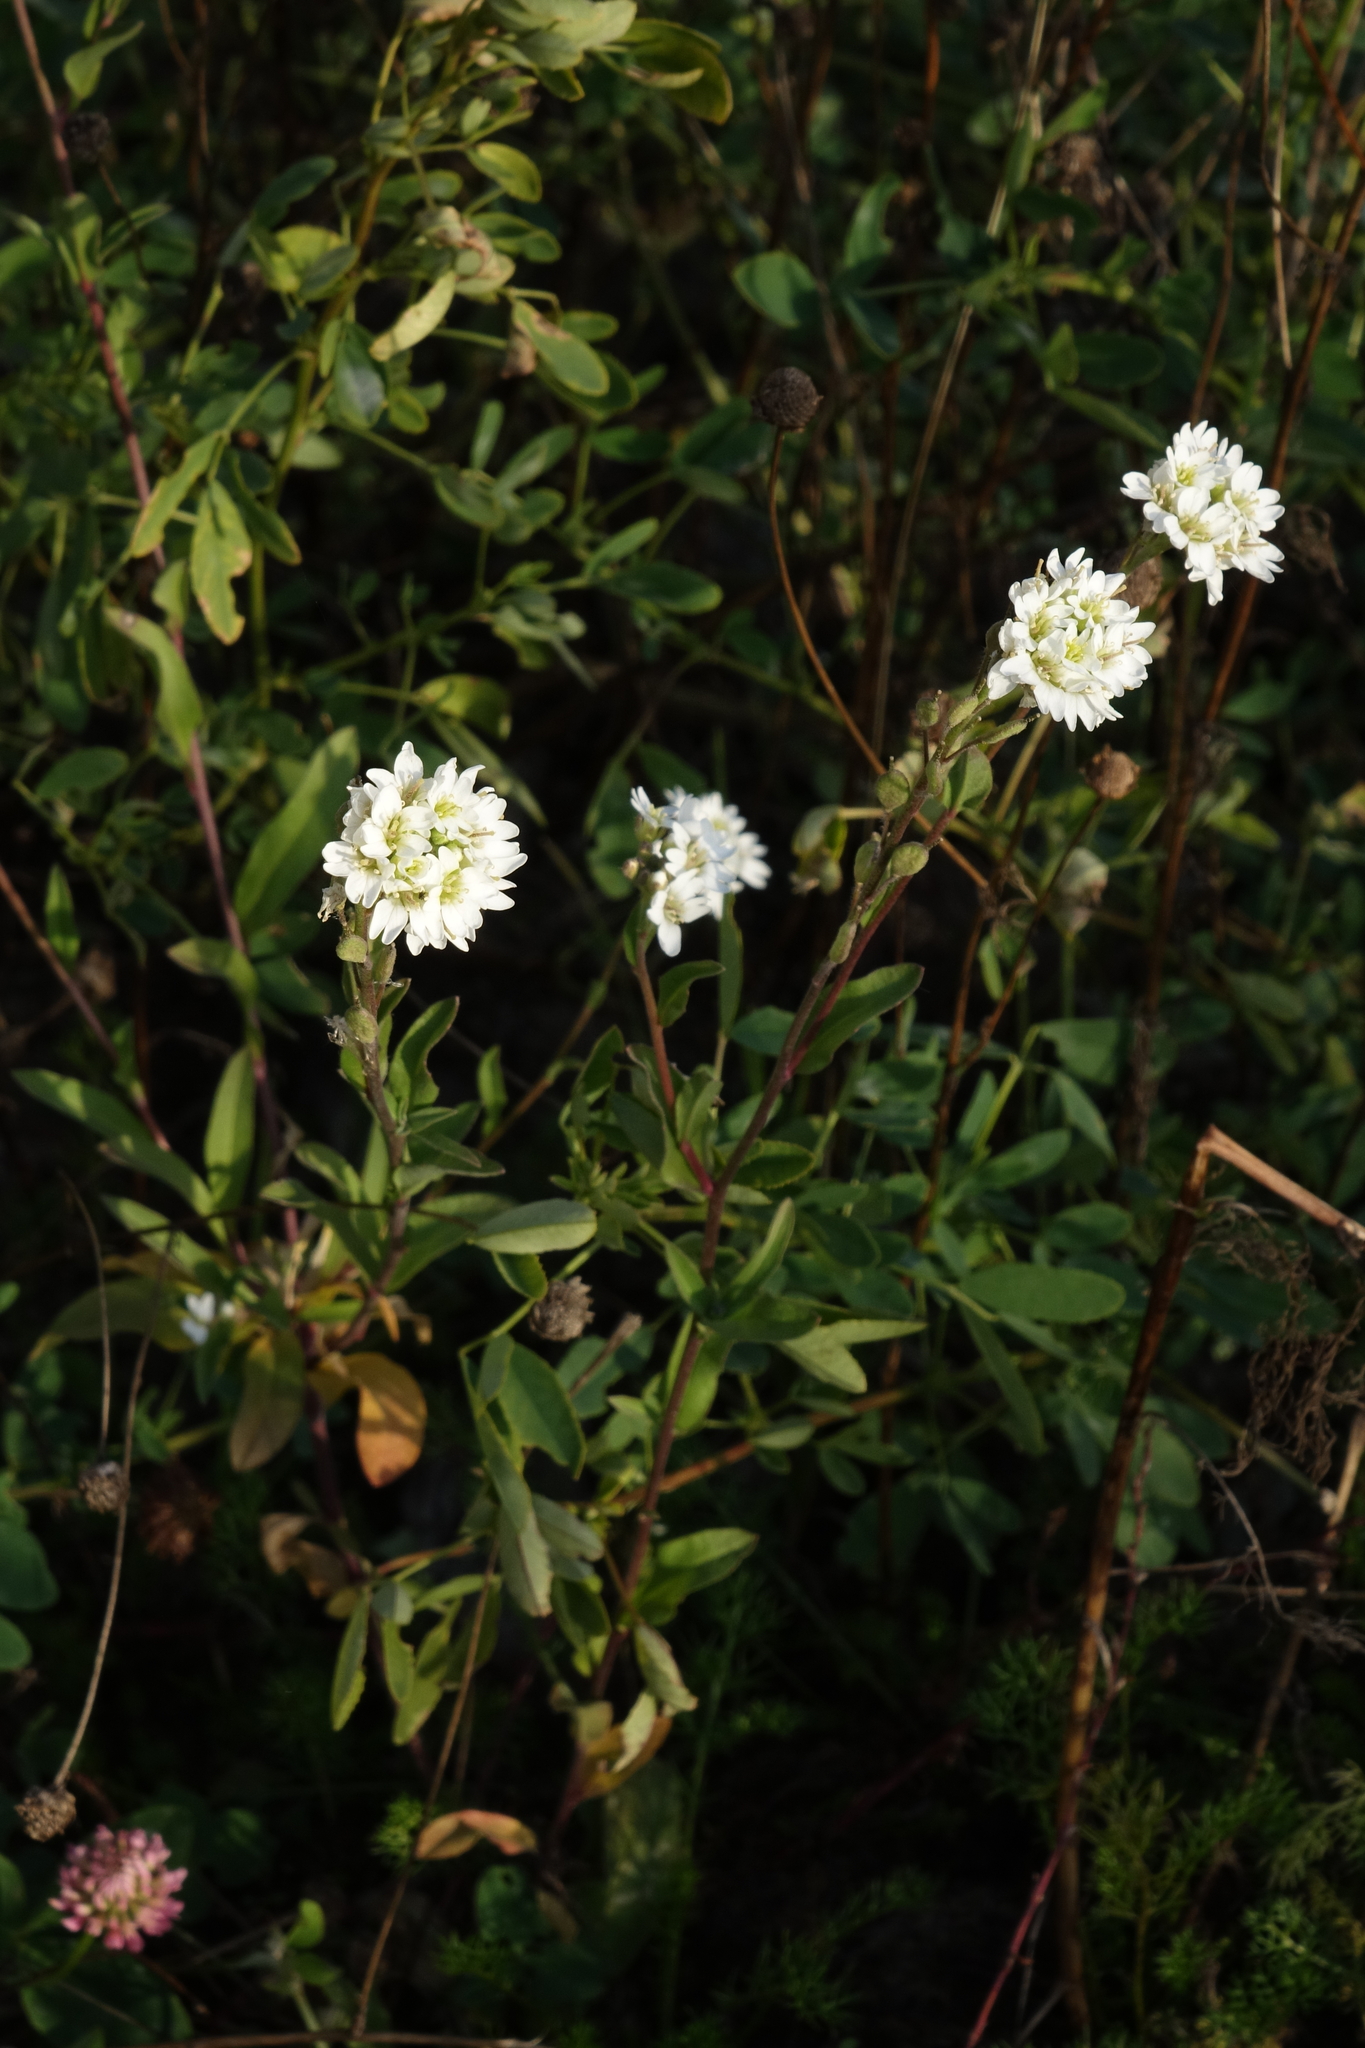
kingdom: Plantae
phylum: Tracheophyta
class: Magnoliopsida
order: Brassicales
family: Brassicaceae
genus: Berteroa
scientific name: Berteroa incana
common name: Hoary alison
